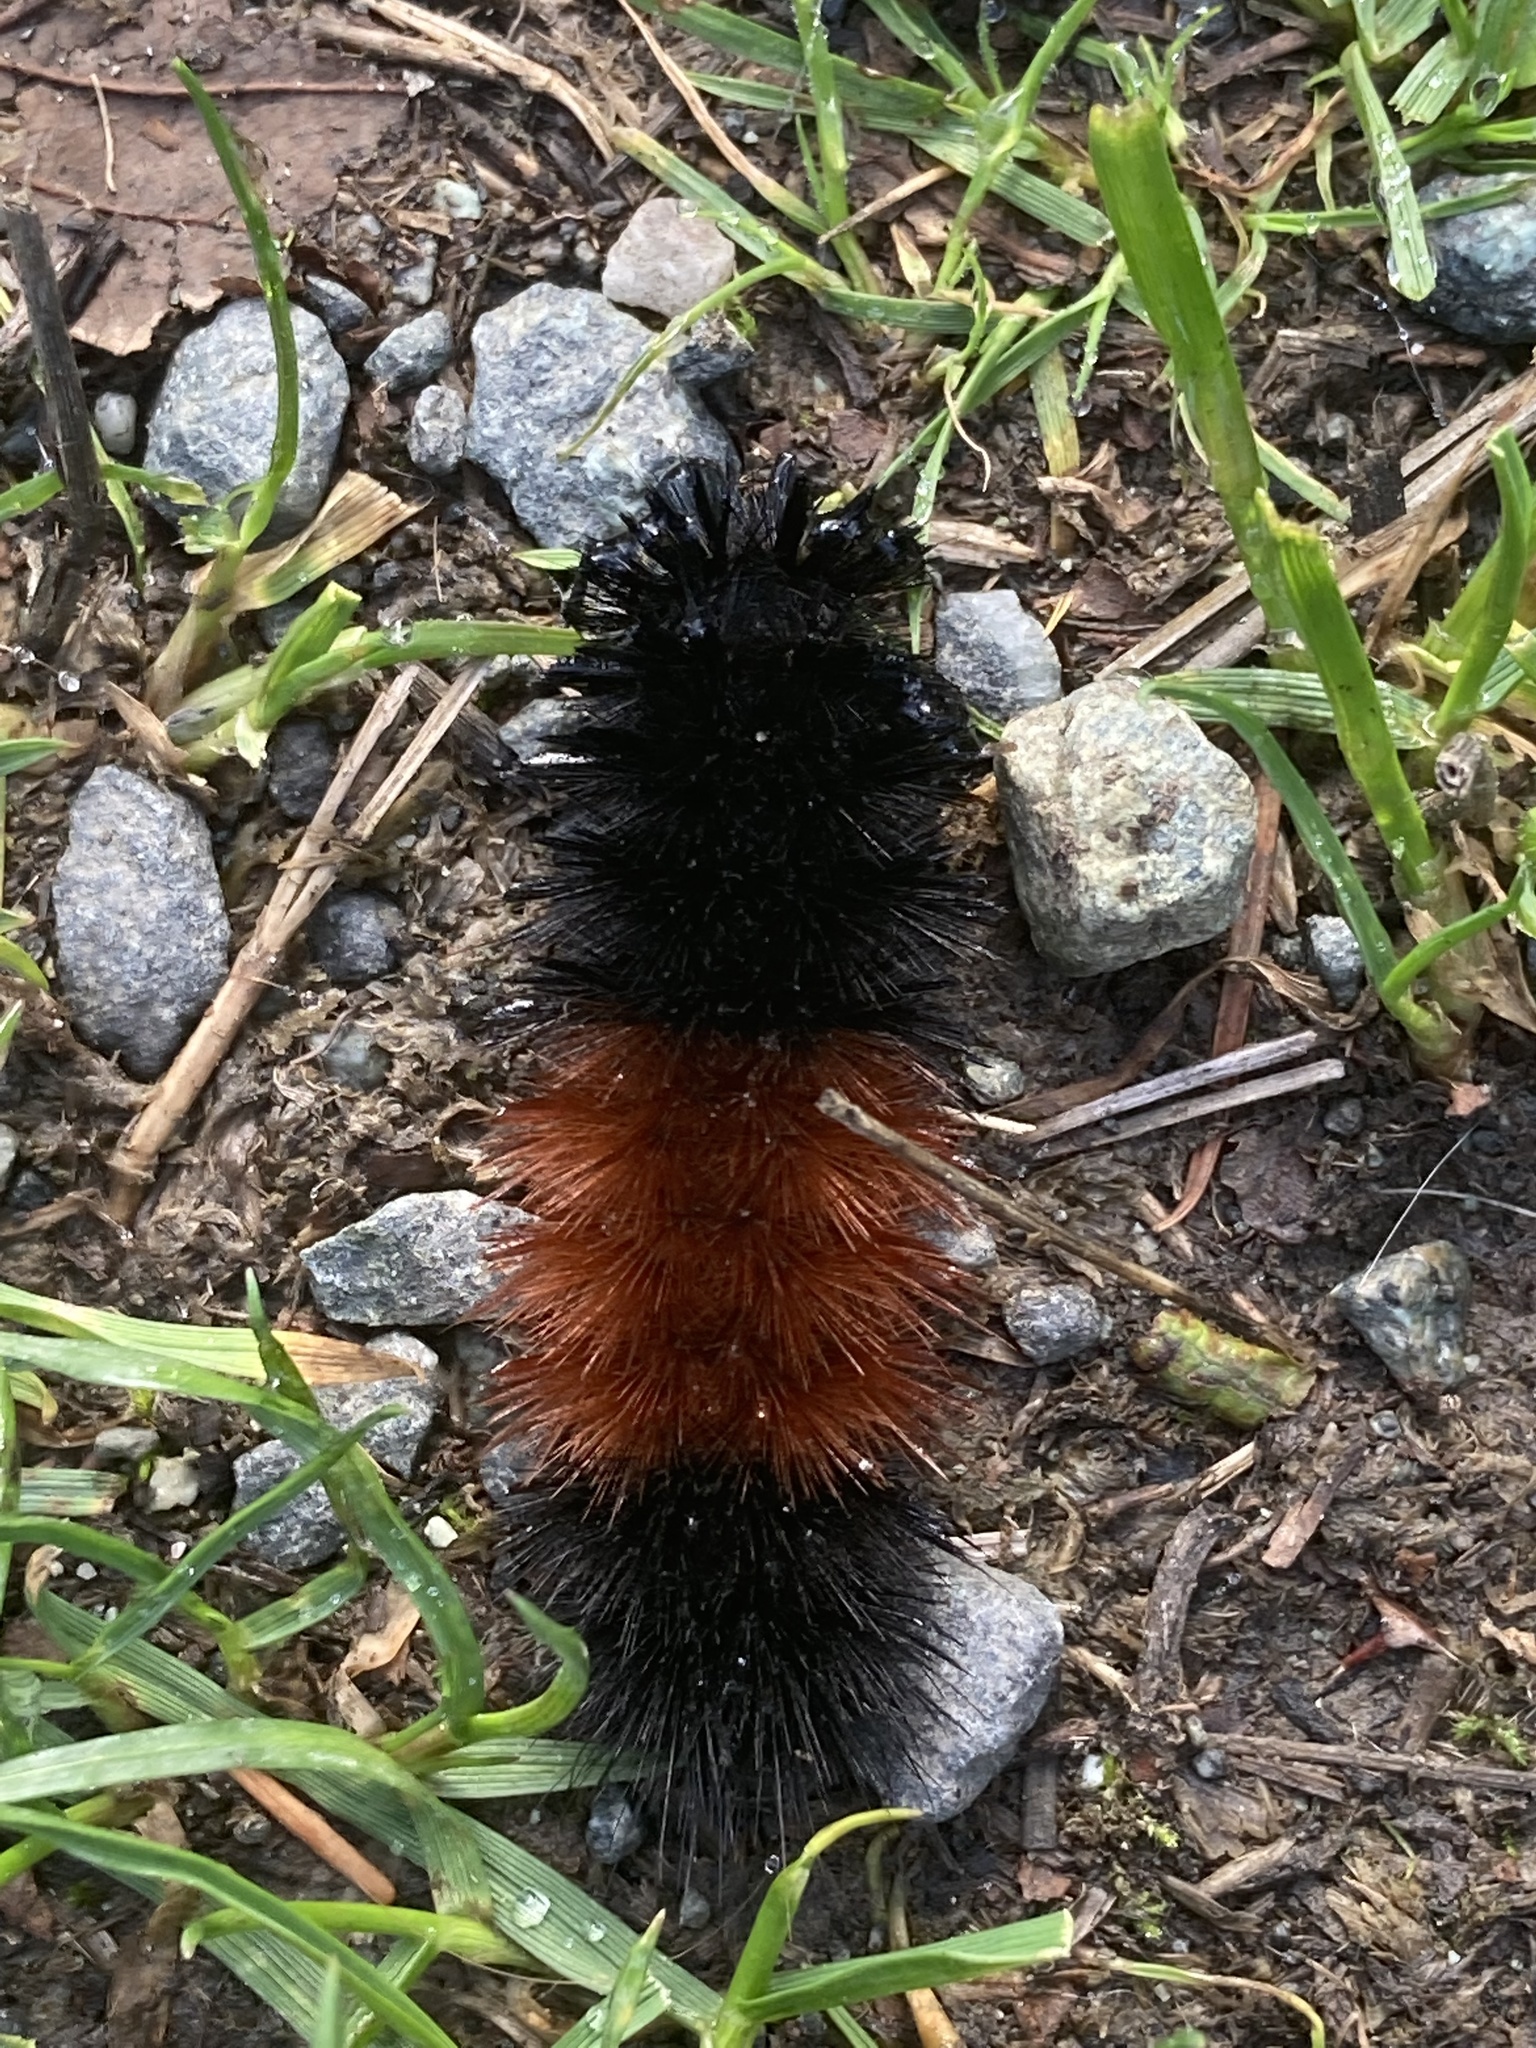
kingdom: Animalia
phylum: Arthropoda
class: Insecta
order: Lepidoptera
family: Erebidae
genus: Pyrrharctia
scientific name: Pyrrharctia isabella
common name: Isabella tiger moth
